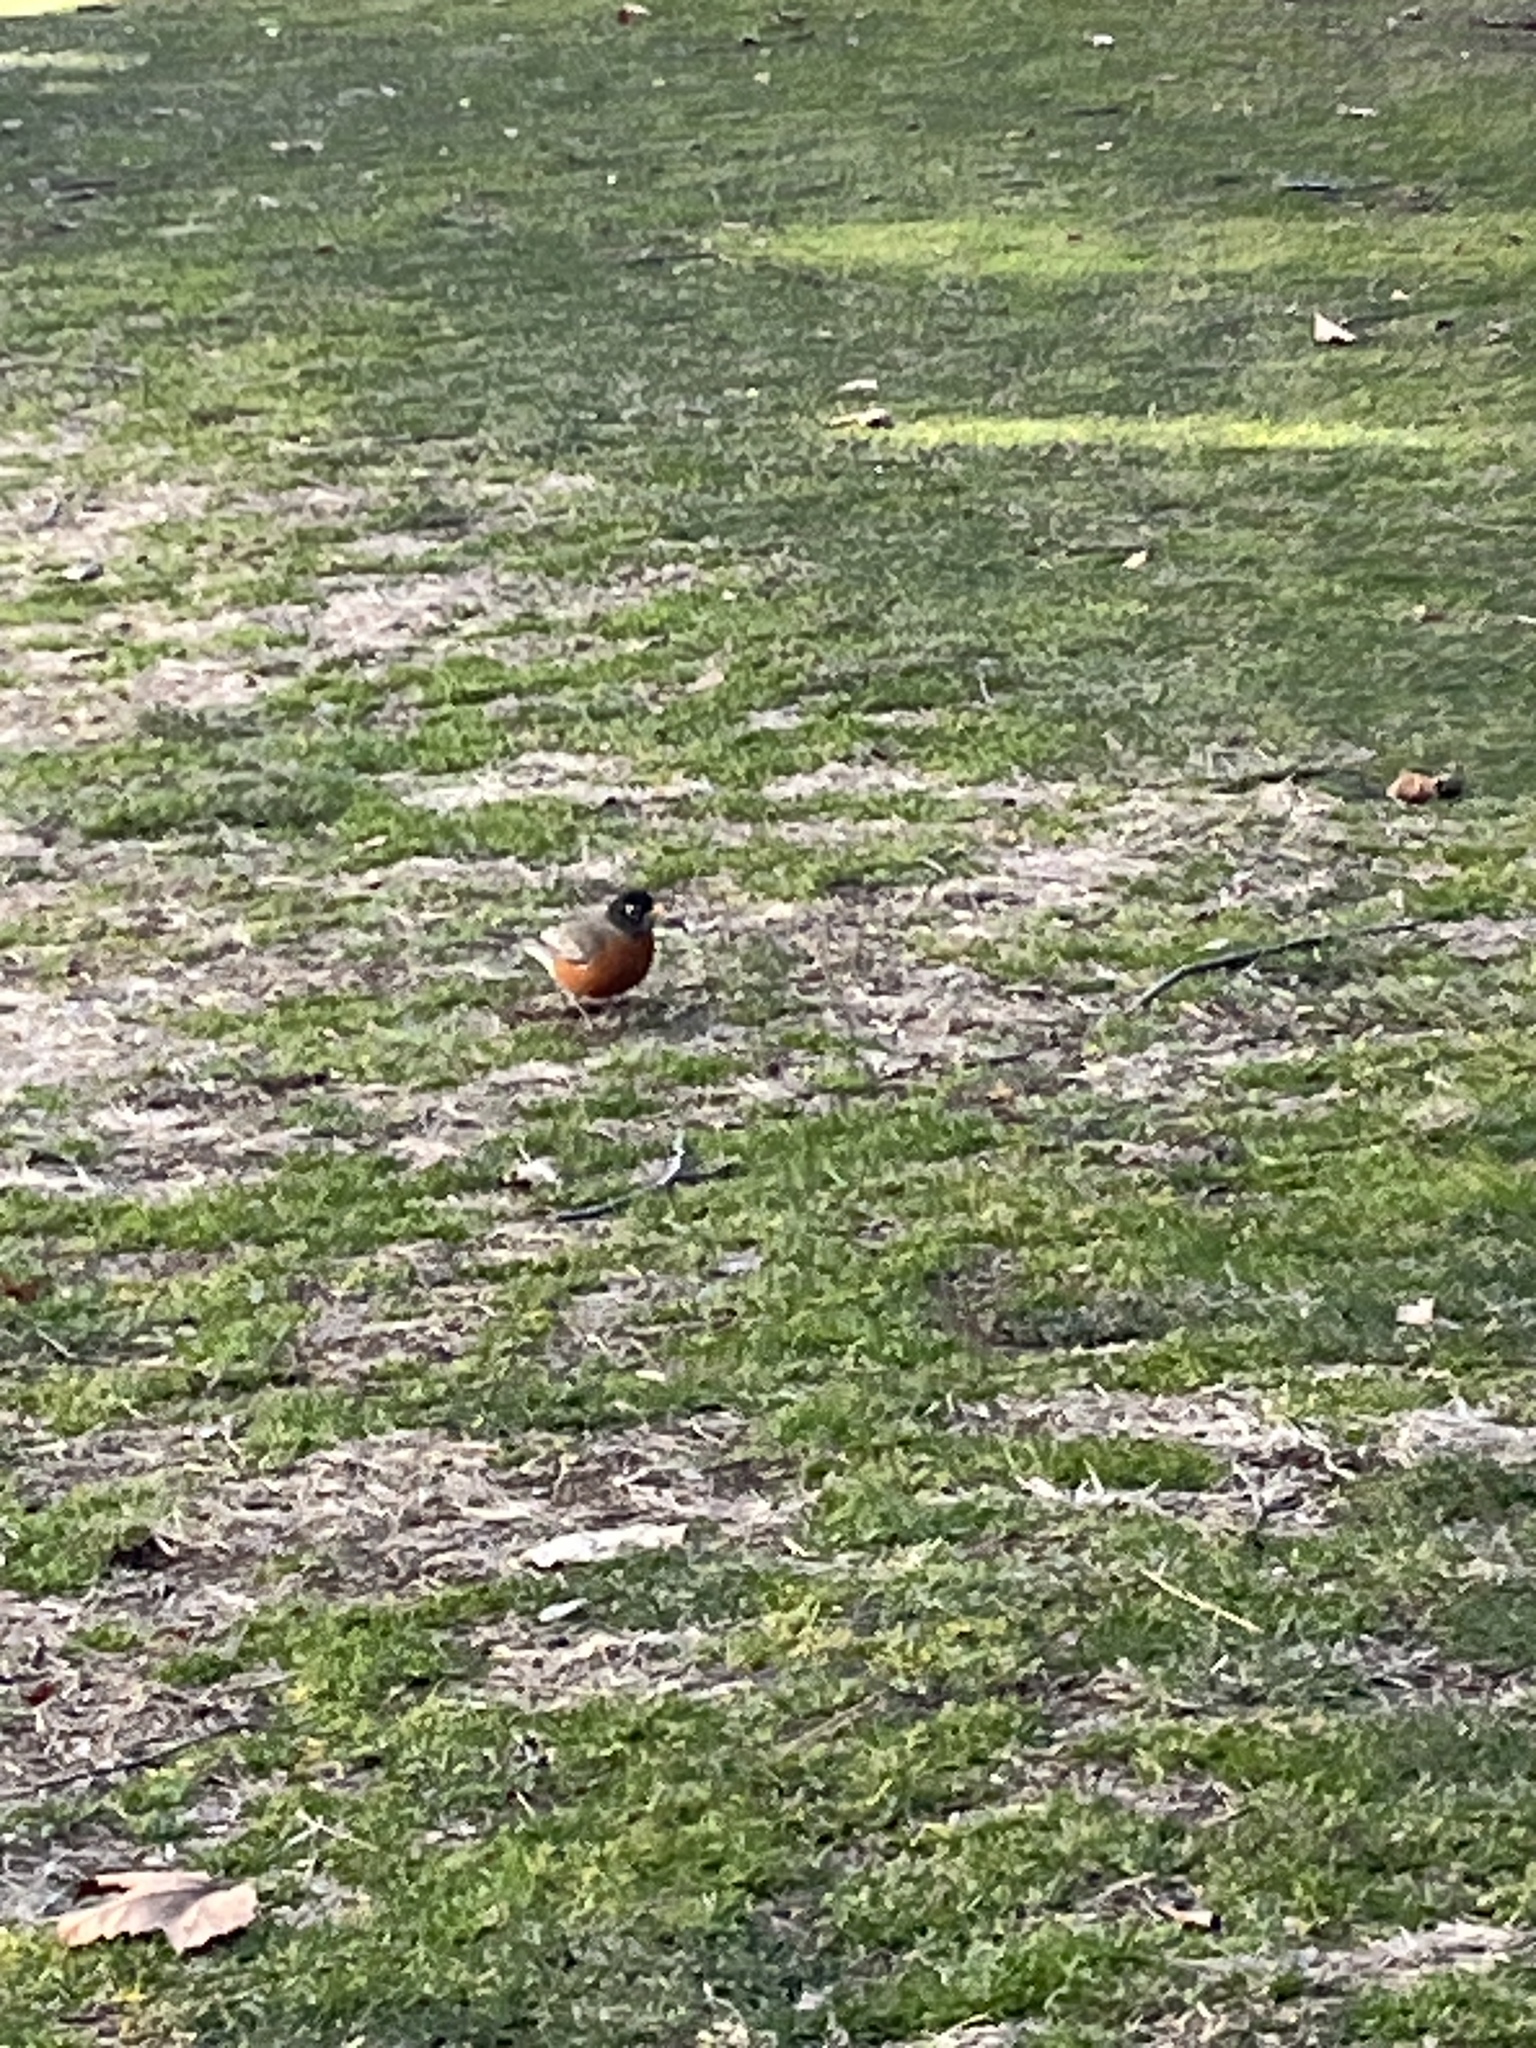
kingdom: Animalia
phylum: Chordata
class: Aves
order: Passeriformes
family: Turdidae
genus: Turdus
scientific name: Turdus migratorius
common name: American robin
